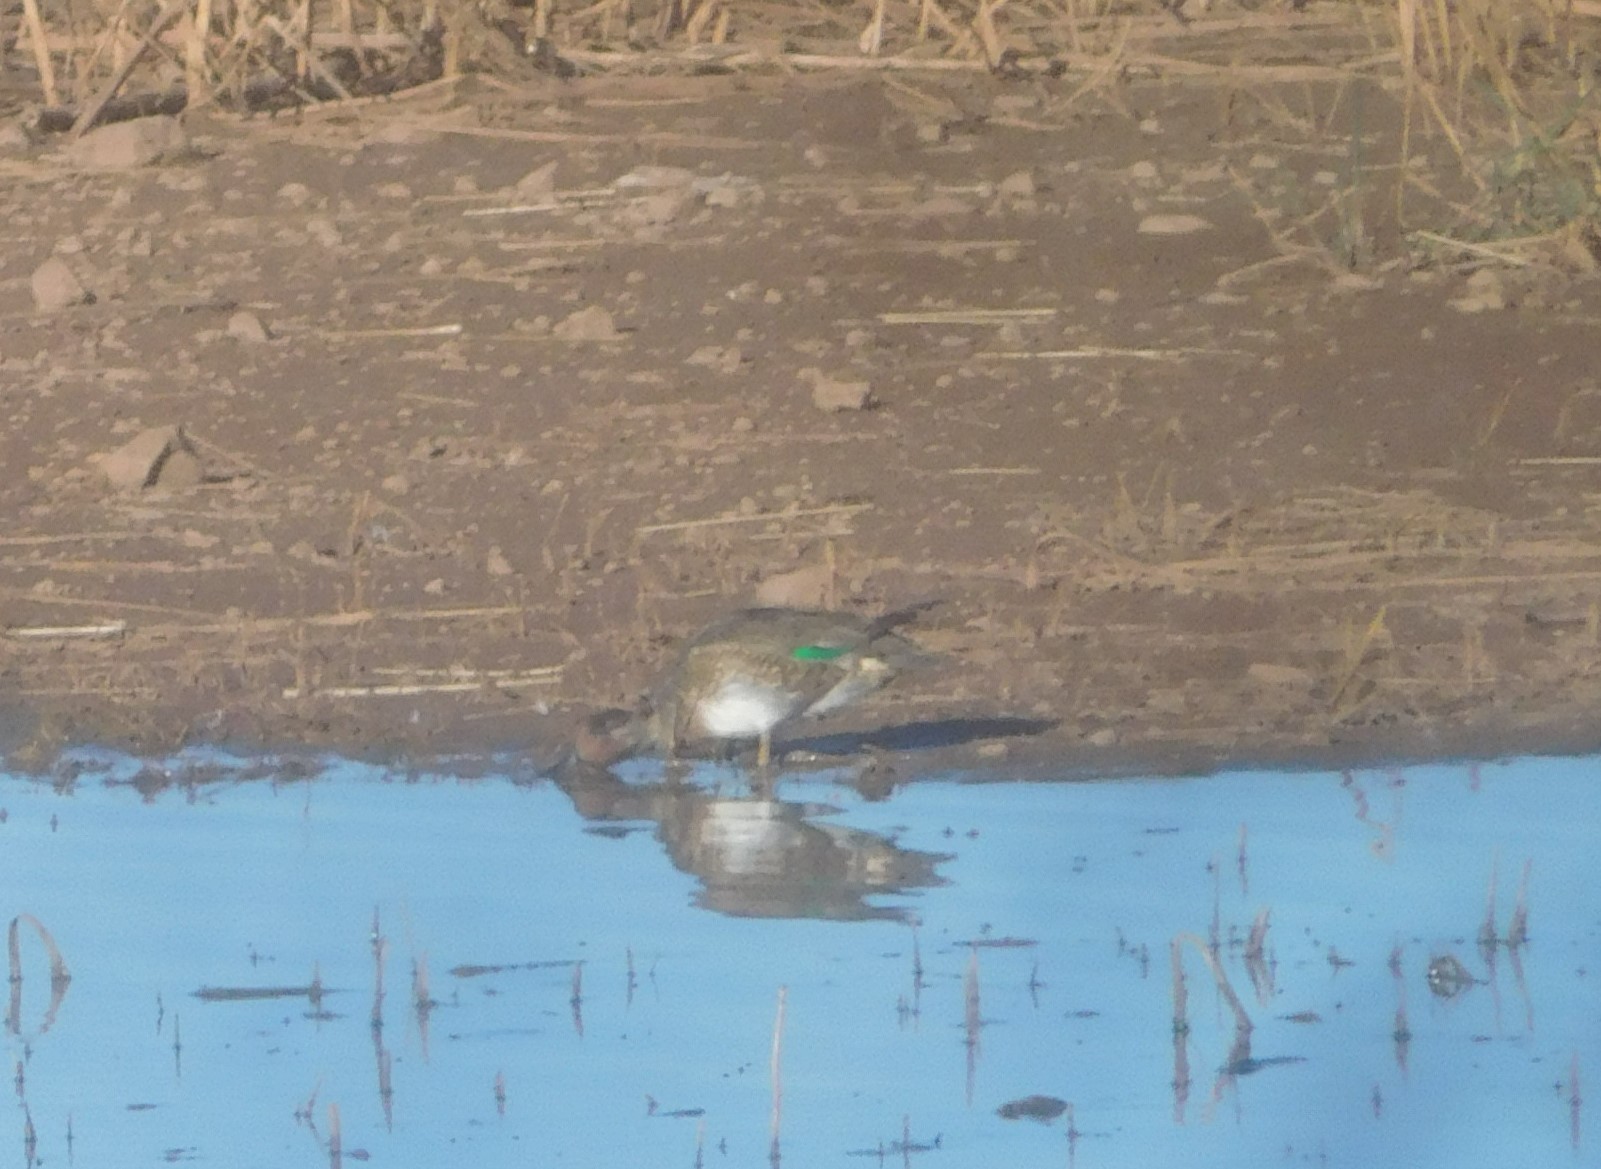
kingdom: Animalia
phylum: Chordata
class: Aves
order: Anseriformes
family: Anatidae
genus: Anas
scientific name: Anas crecca
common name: Eurasian teal
